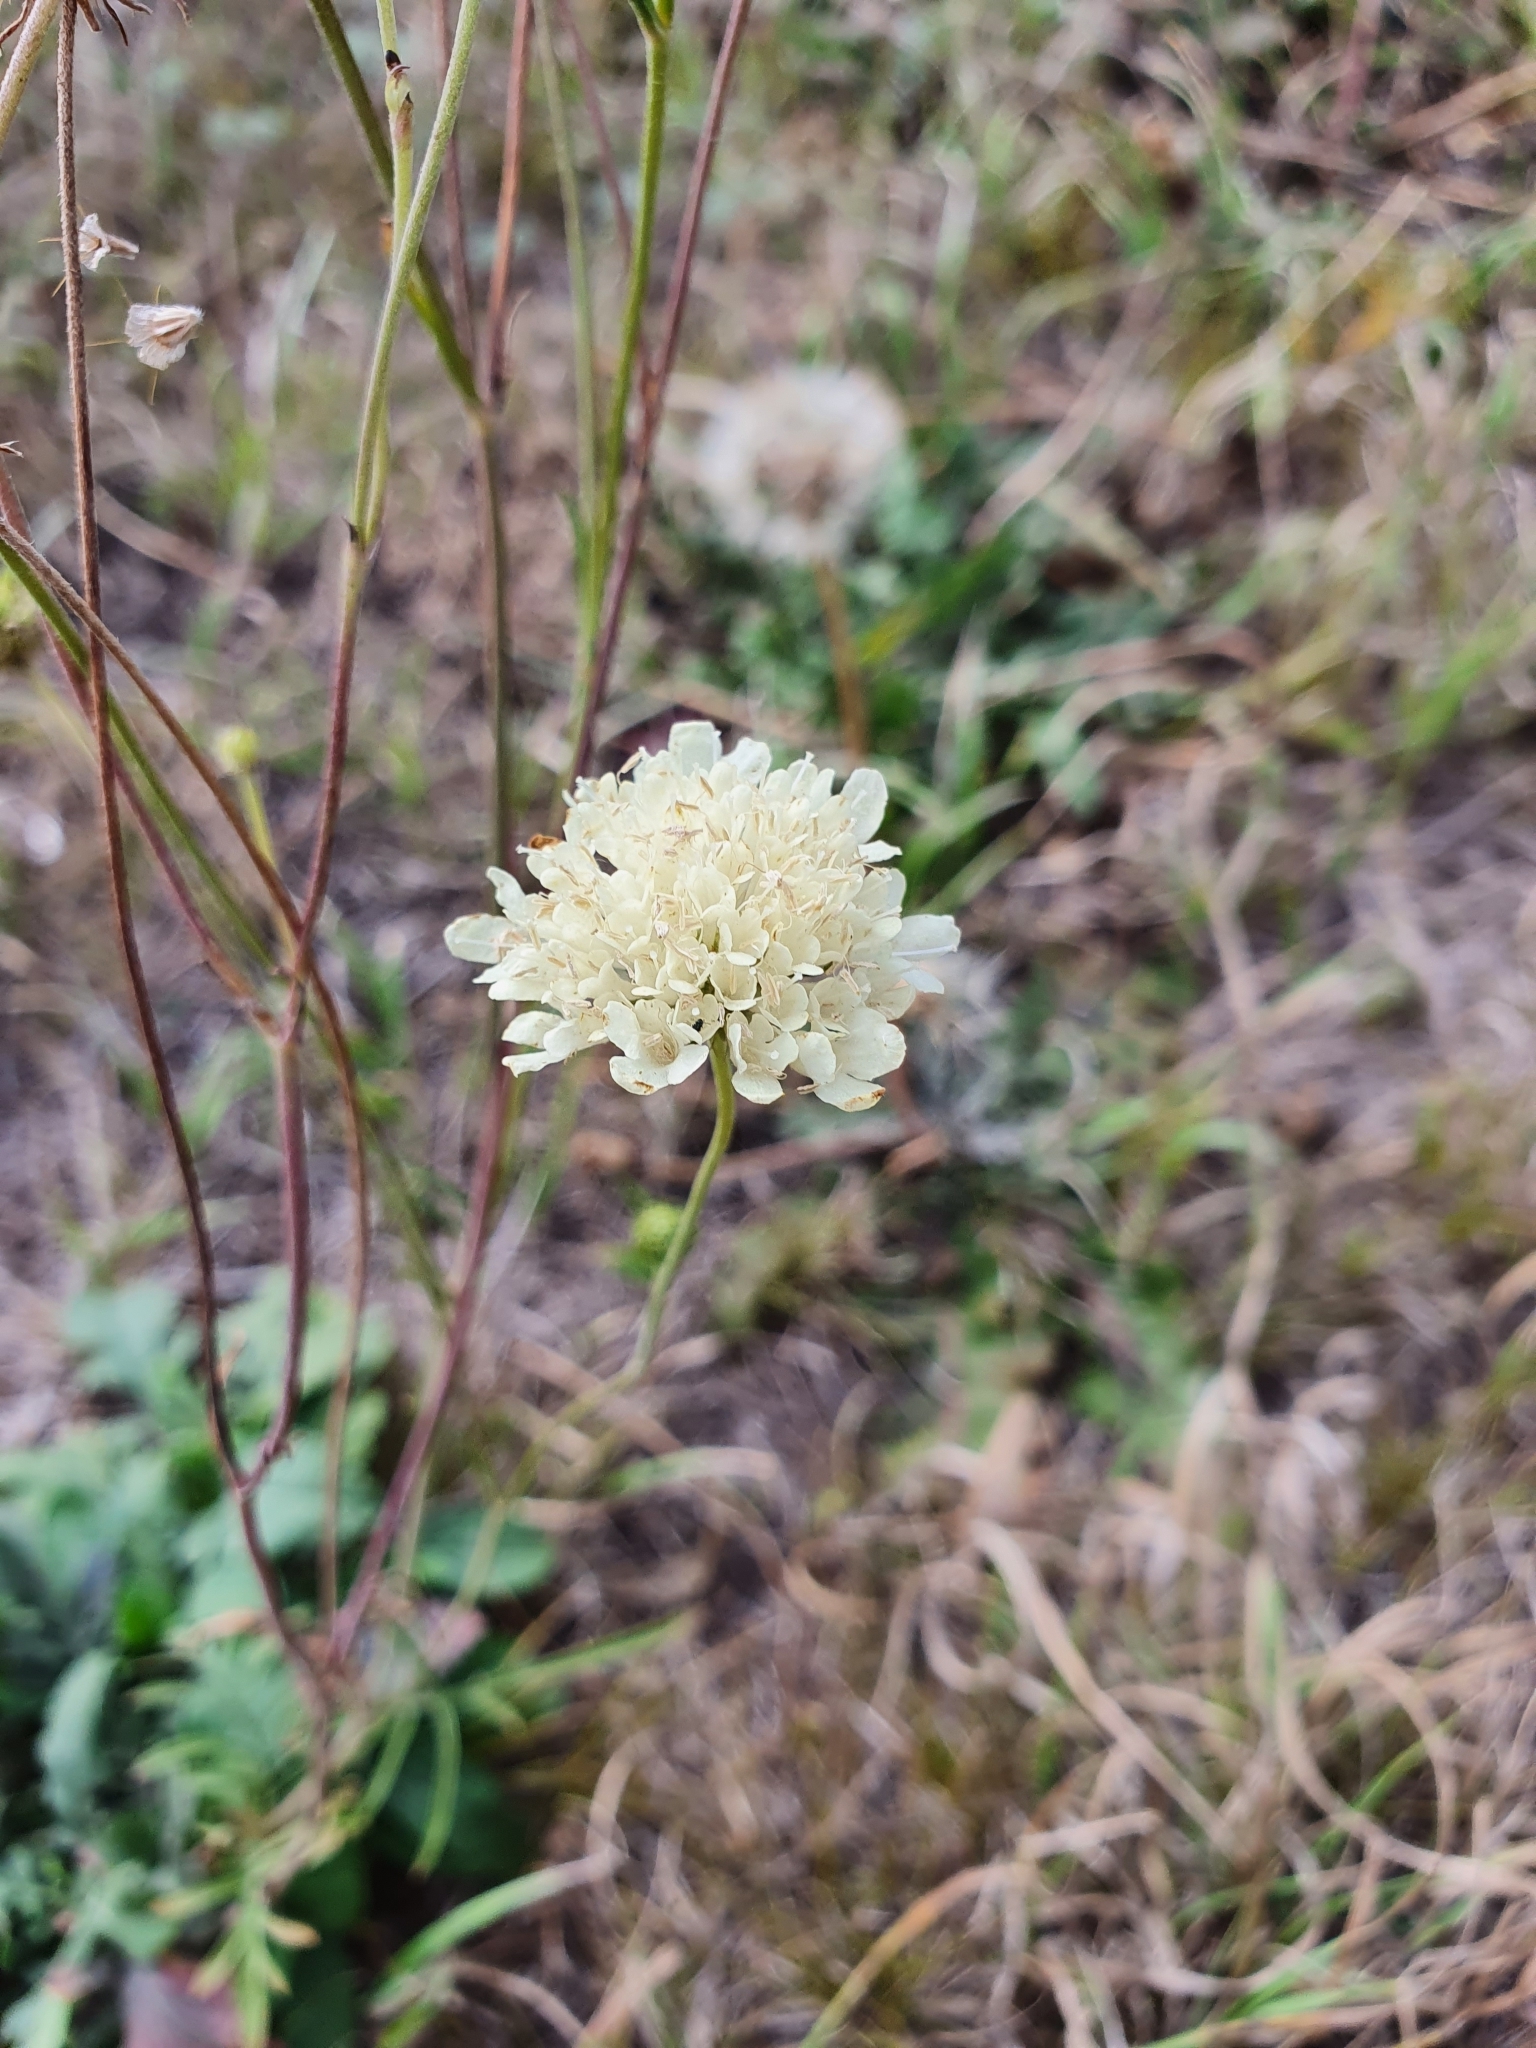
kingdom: Plantae
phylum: Tracheophyta
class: Magnoliopsida
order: Dipsacales
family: Caprifoliaceae
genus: Scabiosa
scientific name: Scabiosa ochroleuca
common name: Cream pincushions
